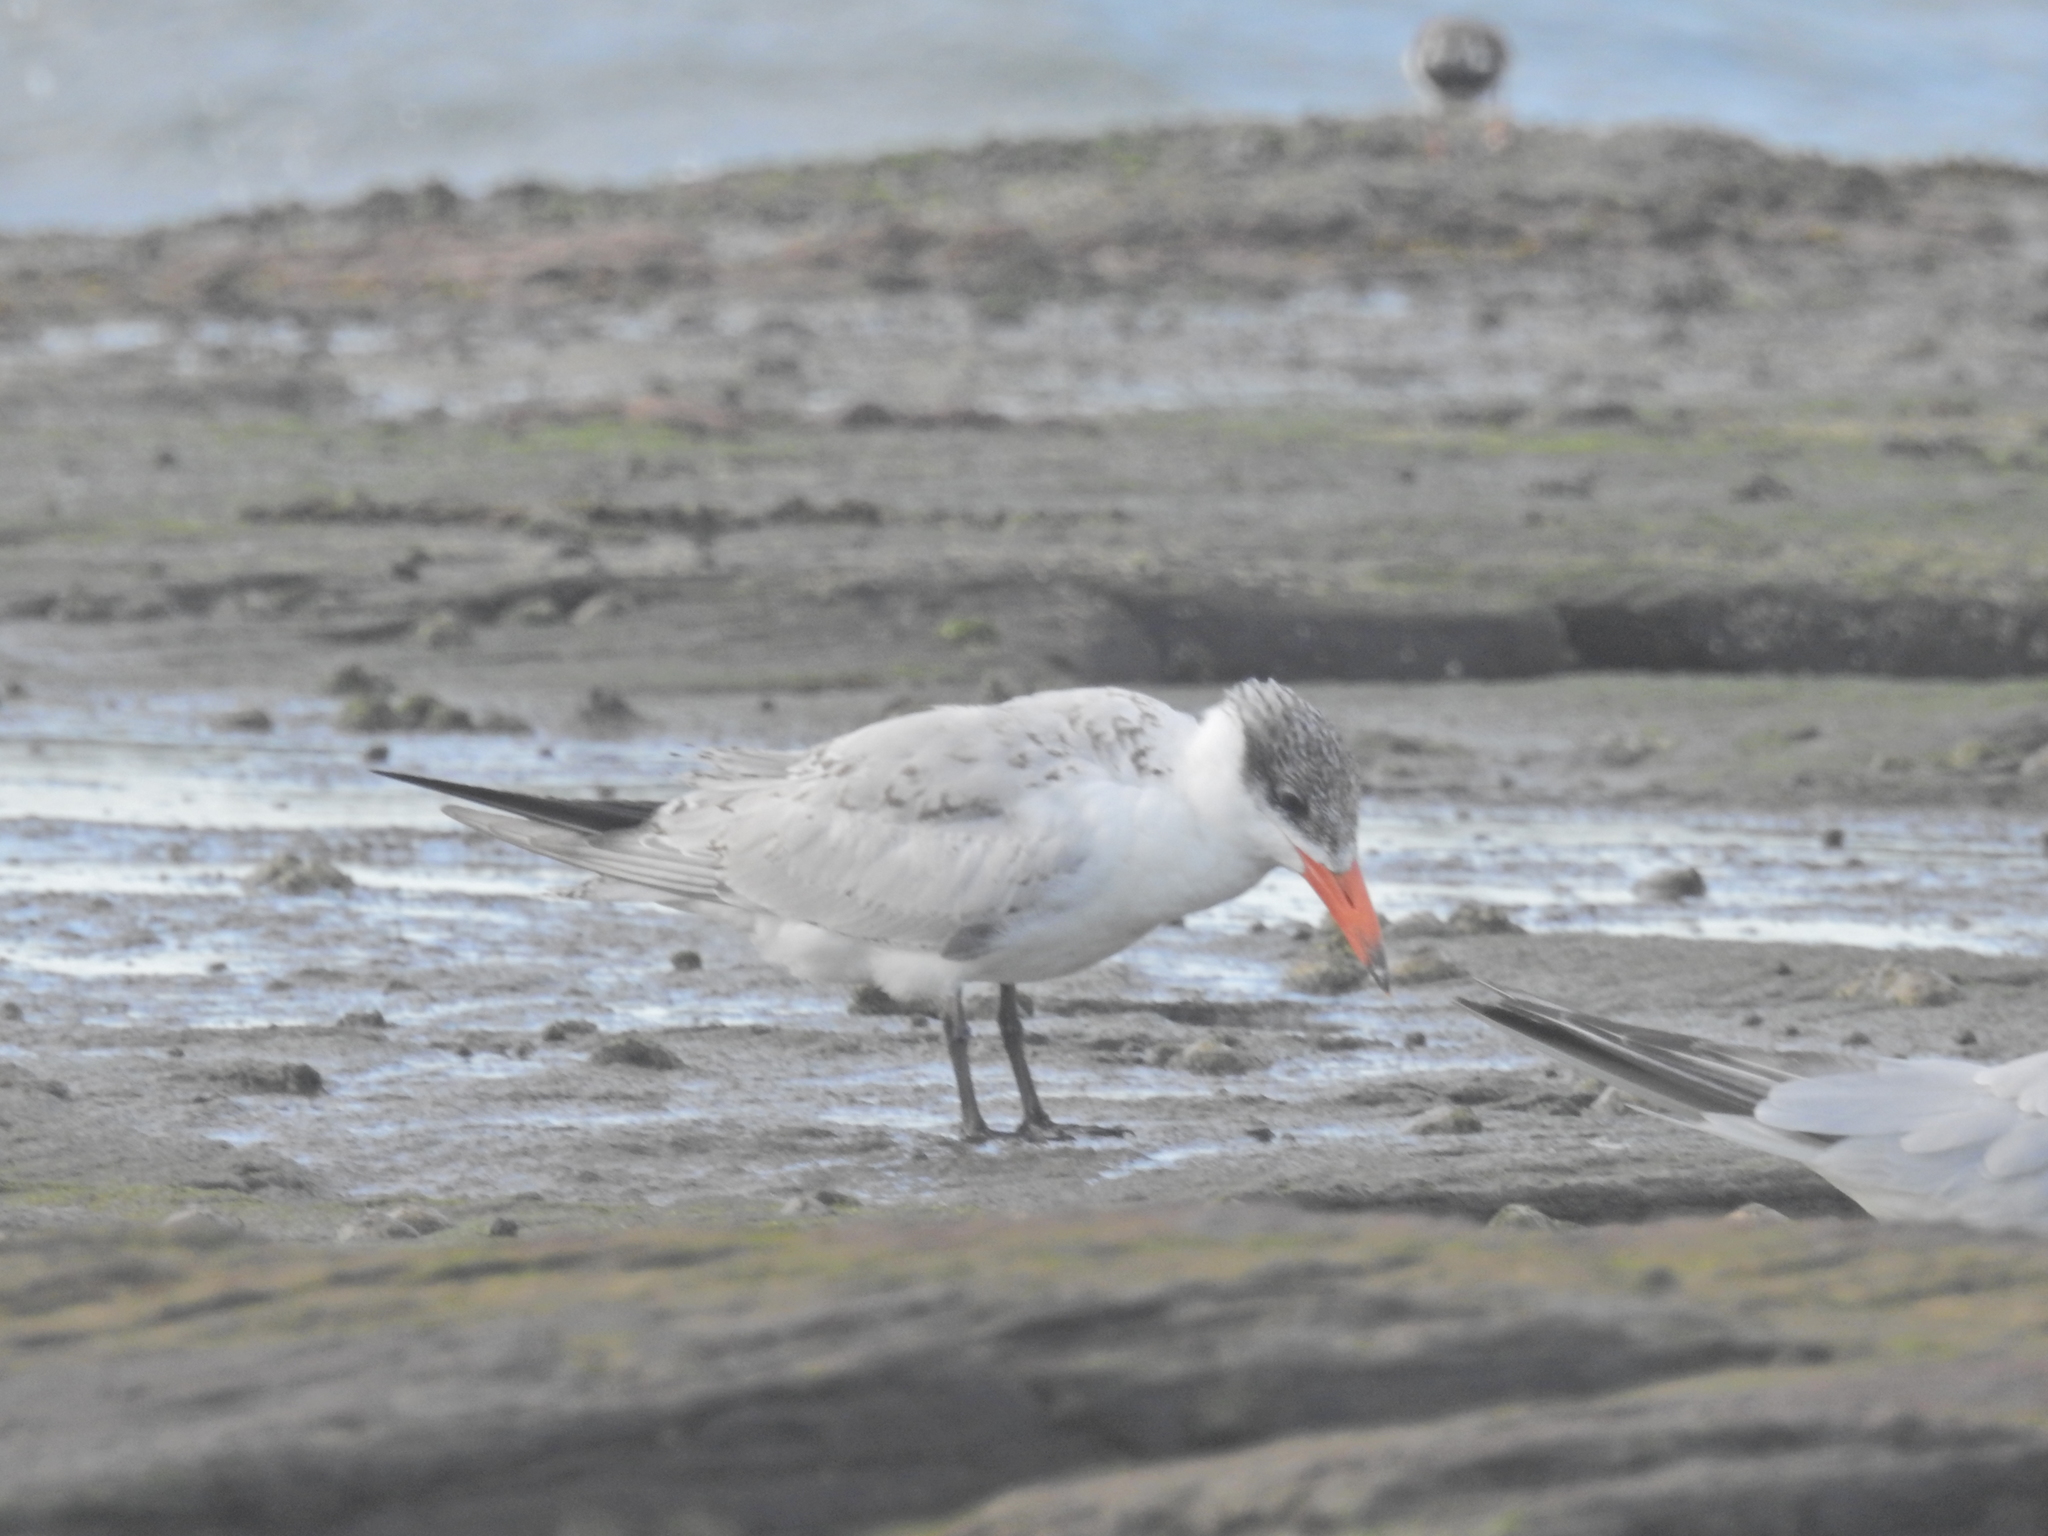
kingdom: Animalia
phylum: Chordata
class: Aves
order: Charadriiformes
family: Laridae
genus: Hydroprogne
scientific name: Hydroprogne caspia
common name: Caspian tern
